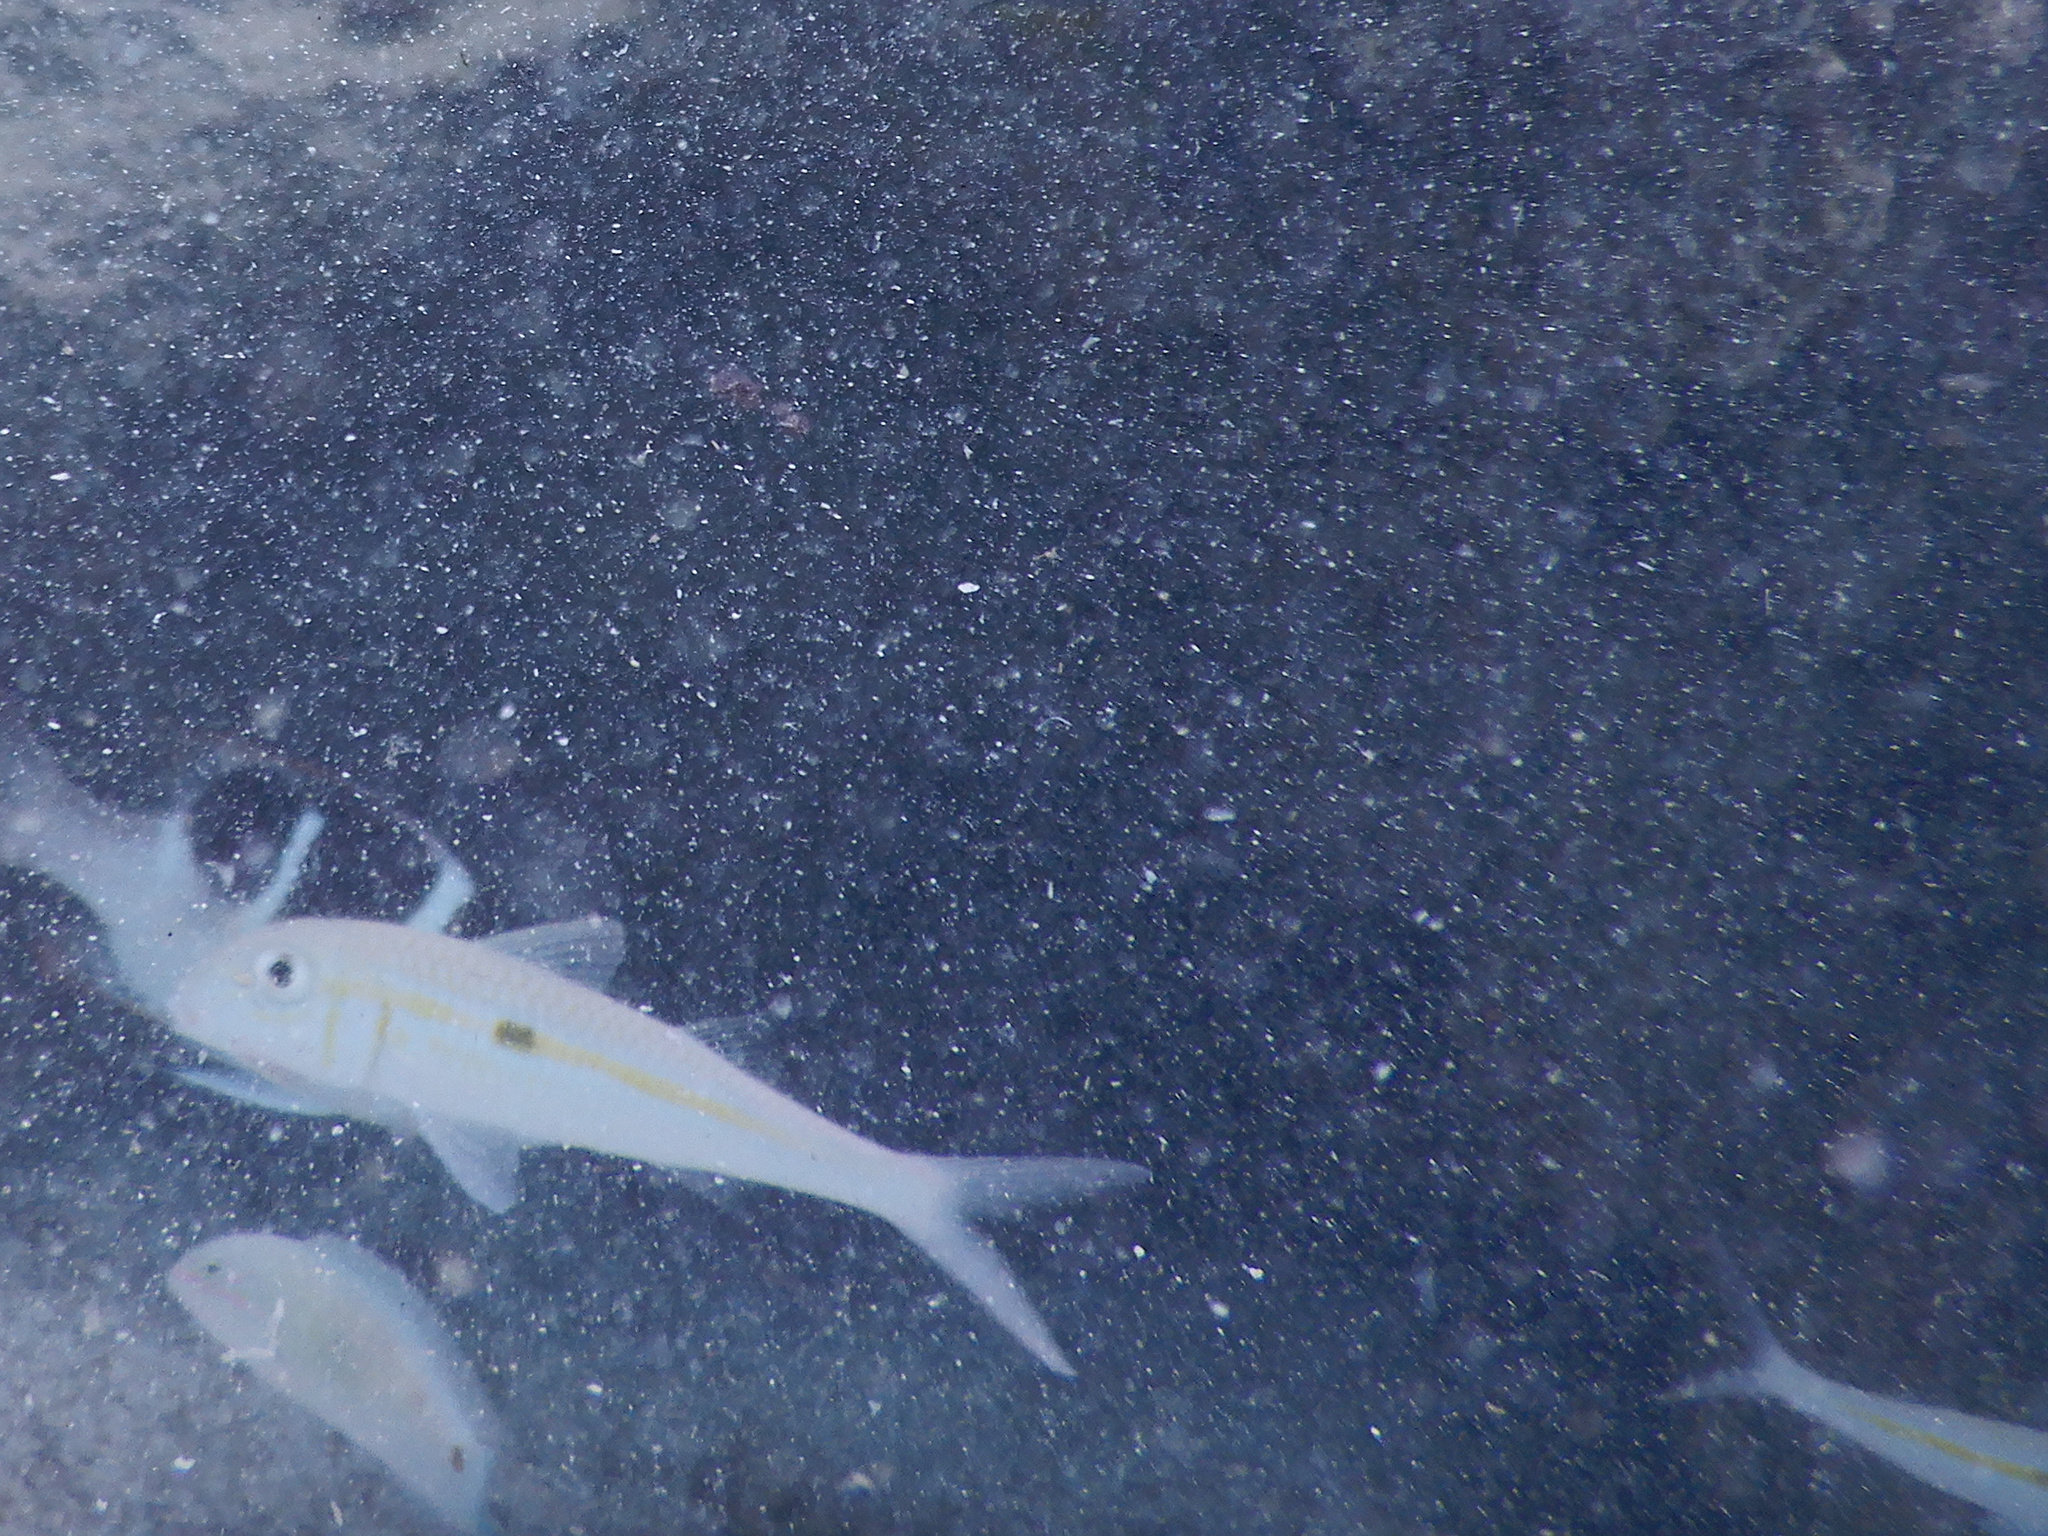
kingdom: Animalia
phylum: Chordata
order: Perciformes
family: Mullidae
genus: Mulloidichthys
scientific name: Mulloidichthys flavolineatus
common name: Yellowstripe goatfish
